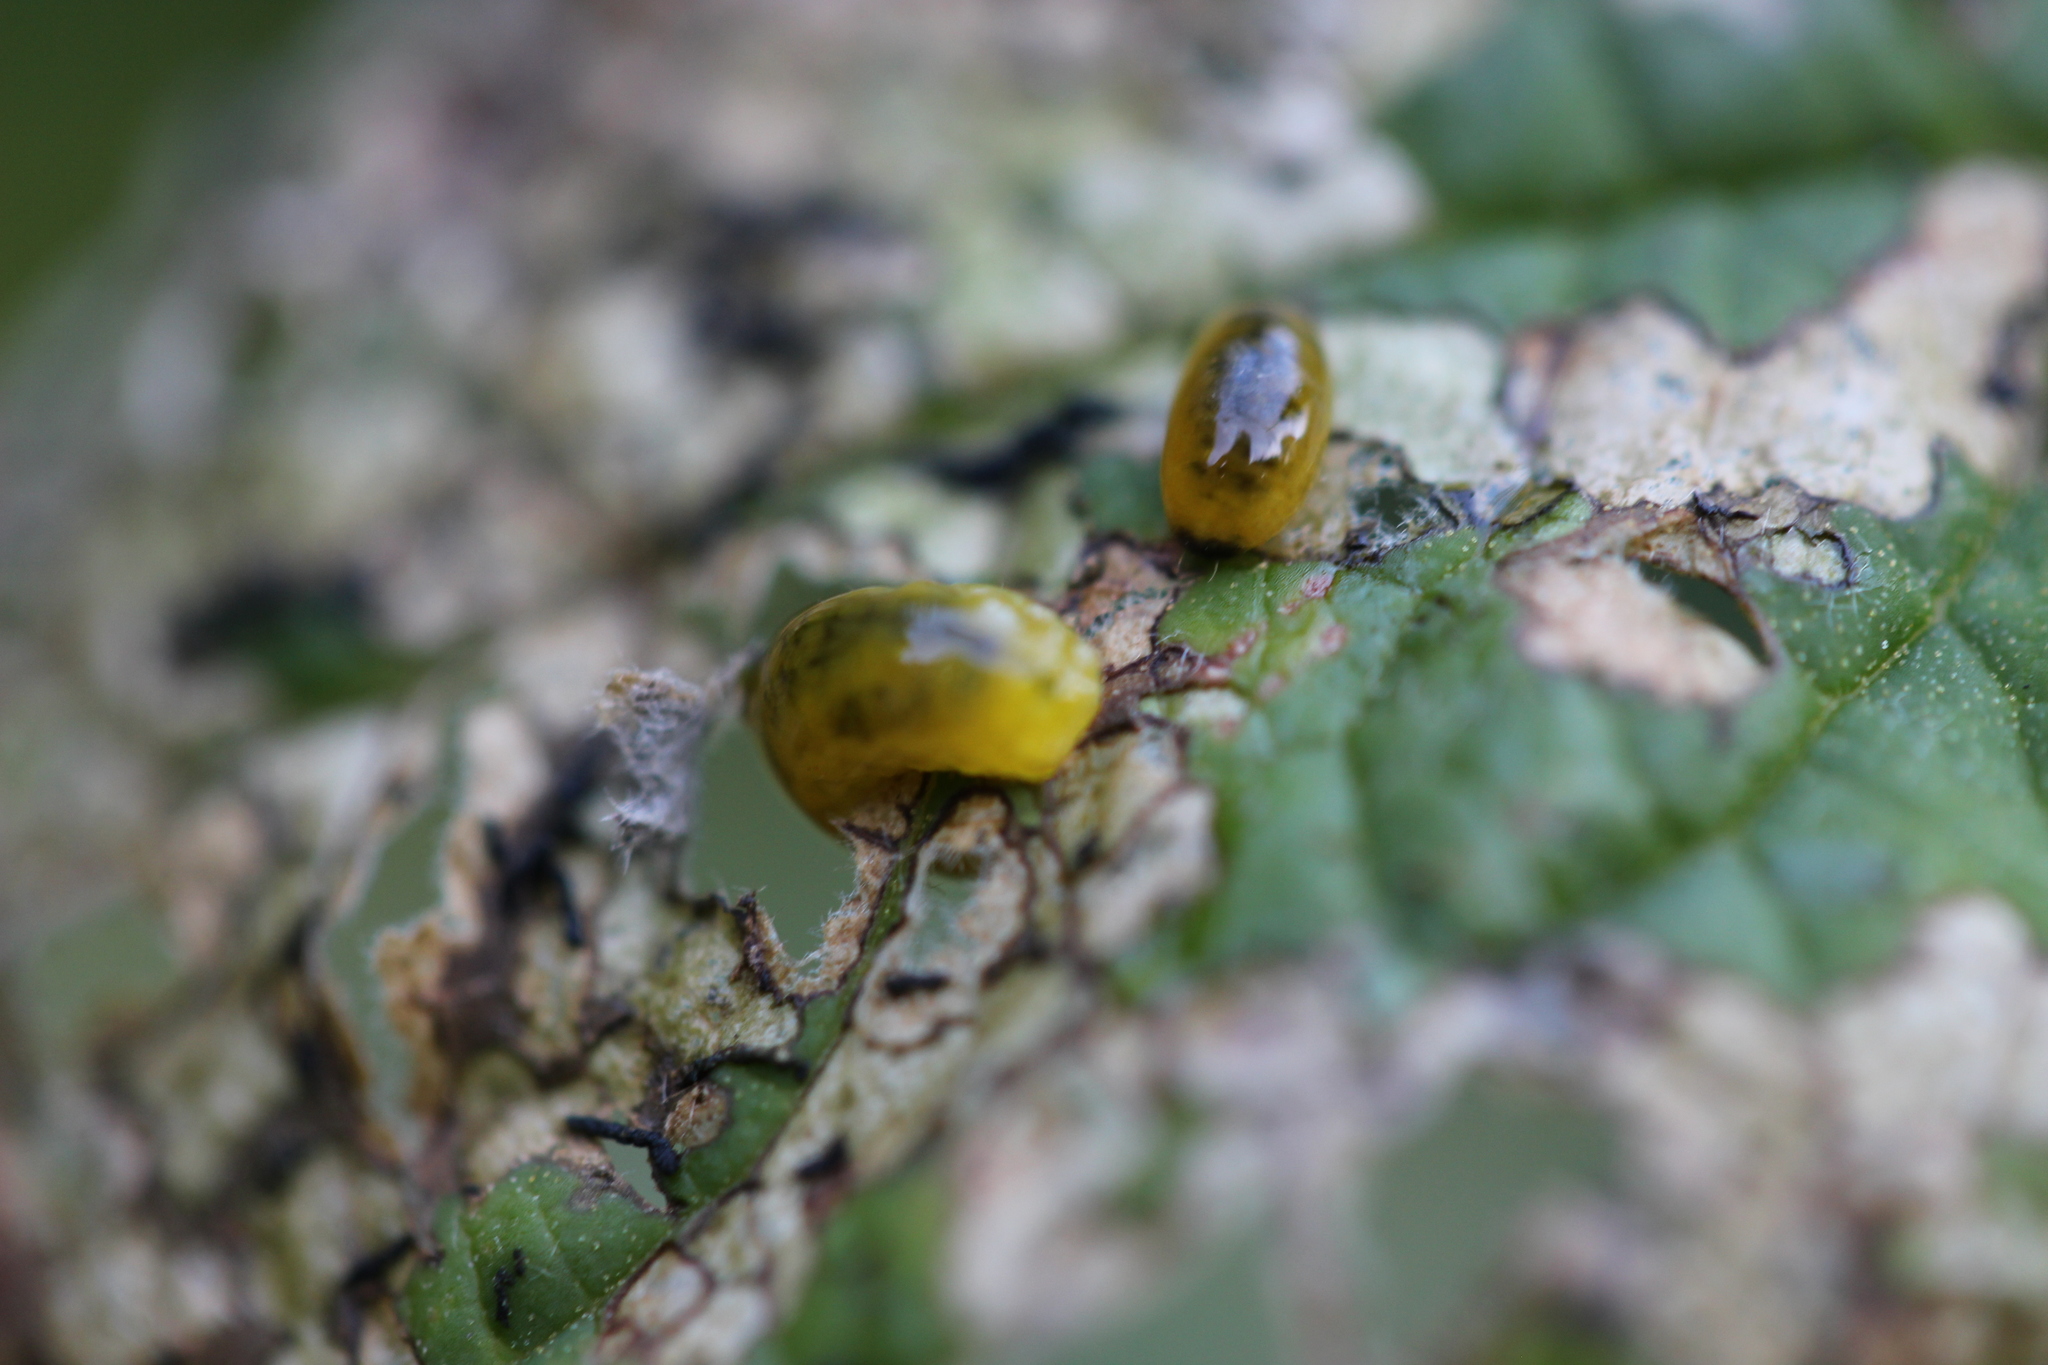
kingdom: Animalia
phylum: Arthropoda
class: Insecta
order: Coleoptera
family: Curculionidae
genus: Cleopus
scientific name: Cleopus japonicus
